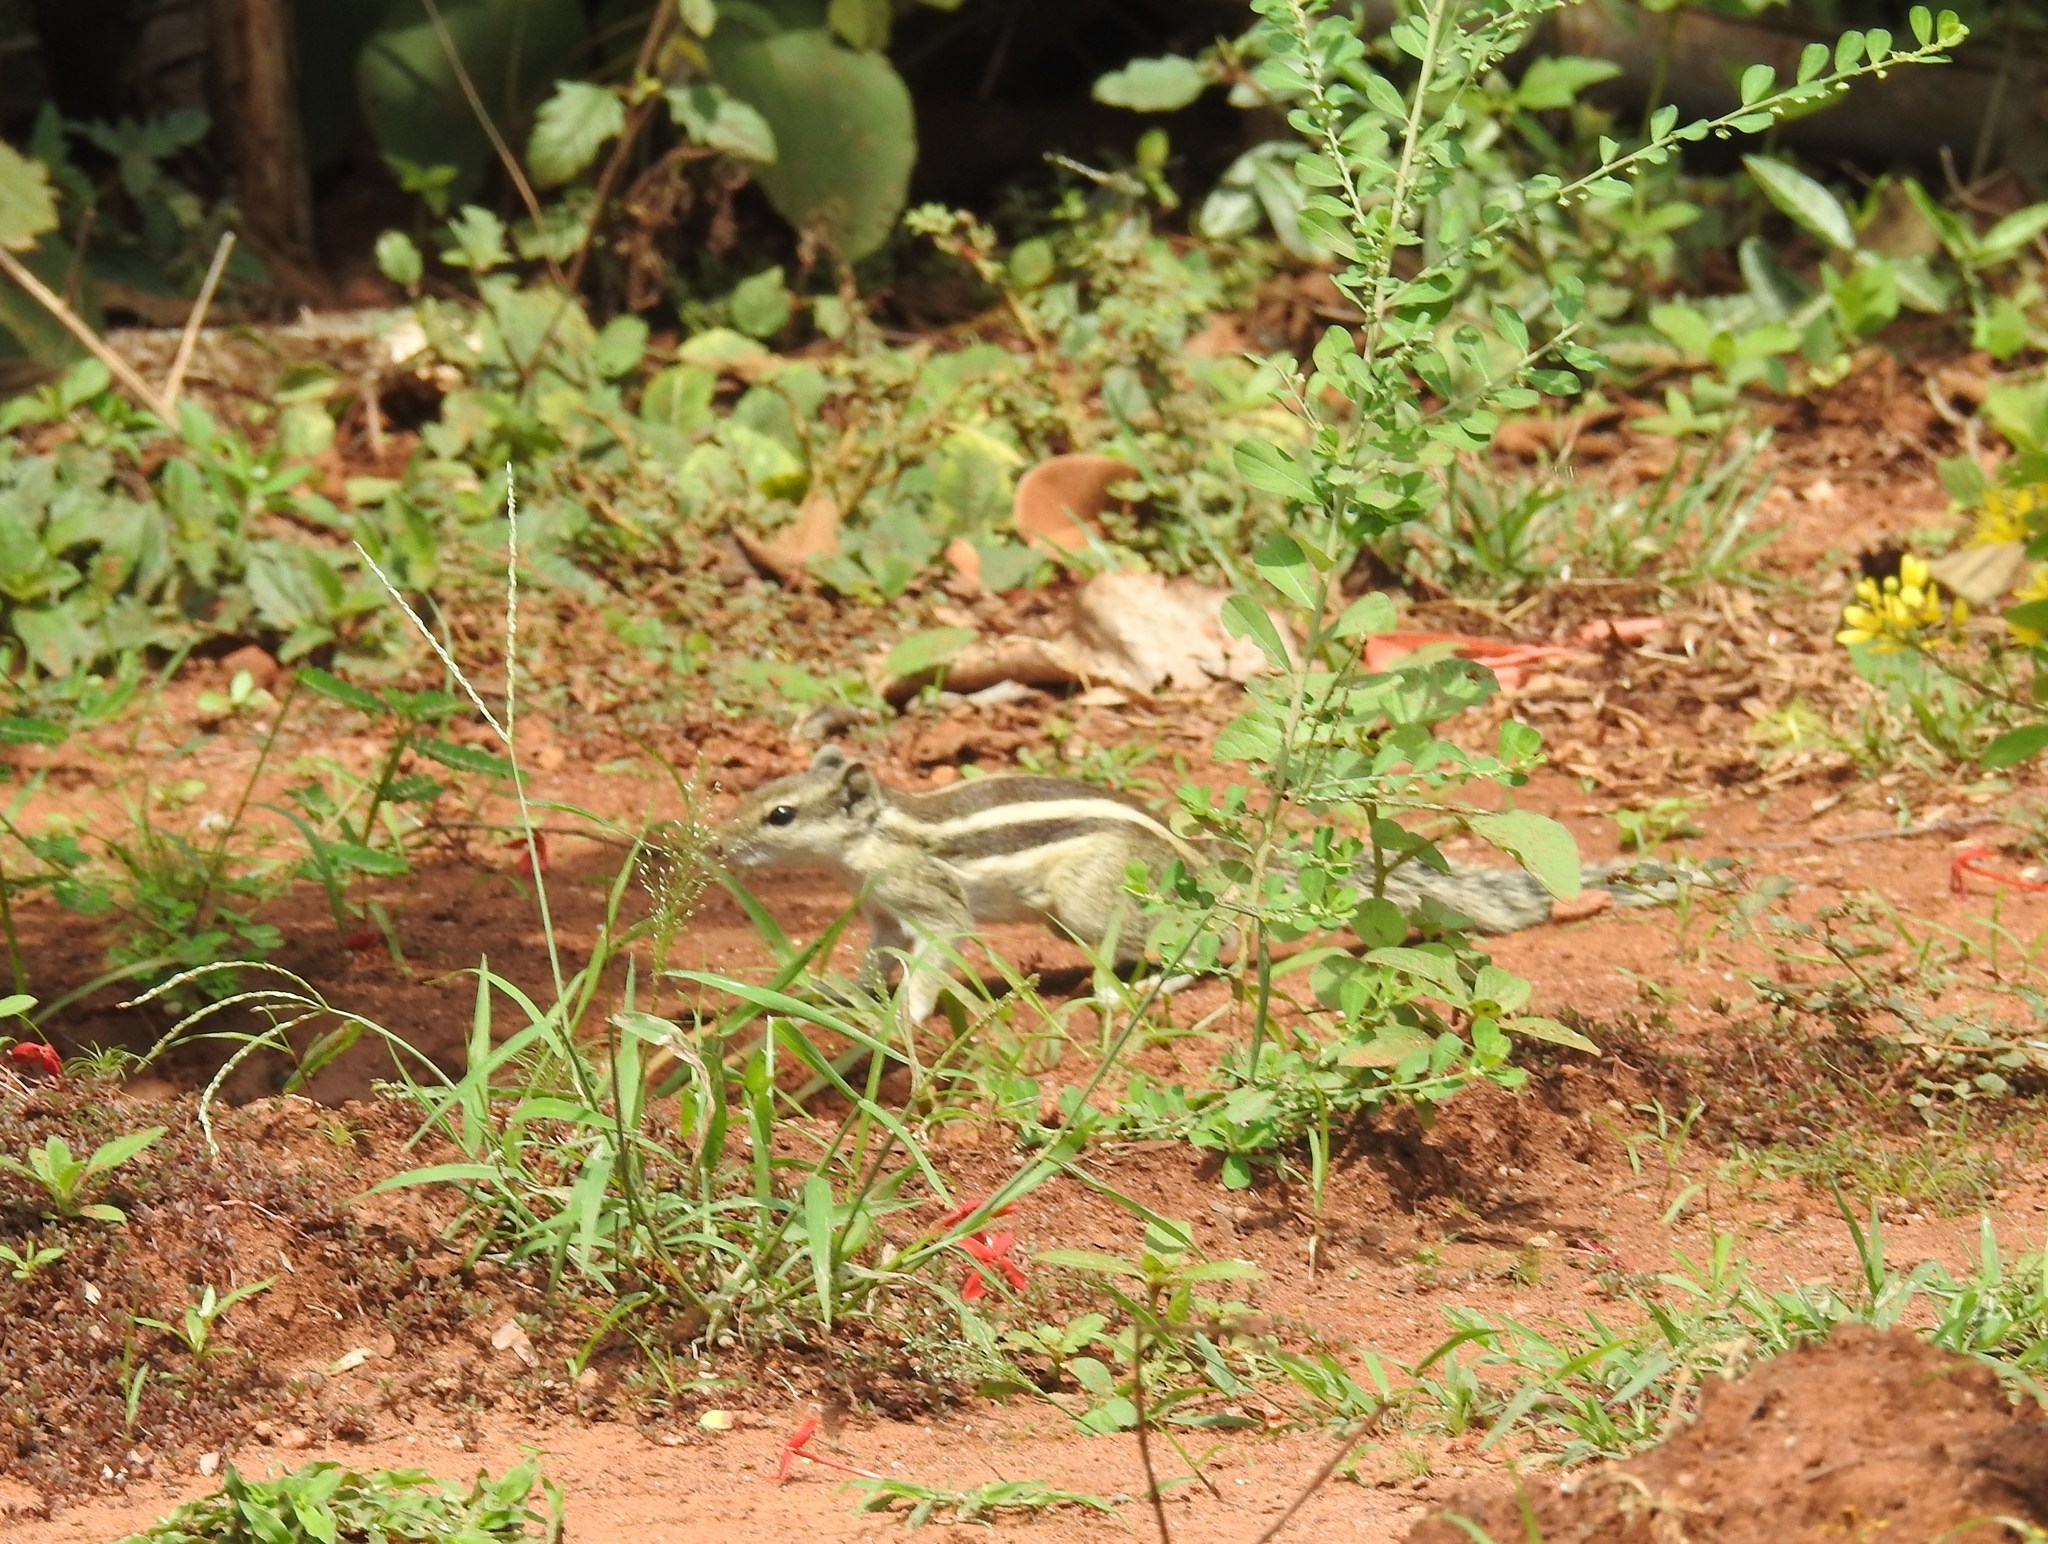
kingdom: Animalia
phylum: Chordata
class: Mammalia
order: Rodentia
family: Sciuridae
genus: Funambulus
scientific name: Funambulus pennantii
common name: Northern palm squirrel
